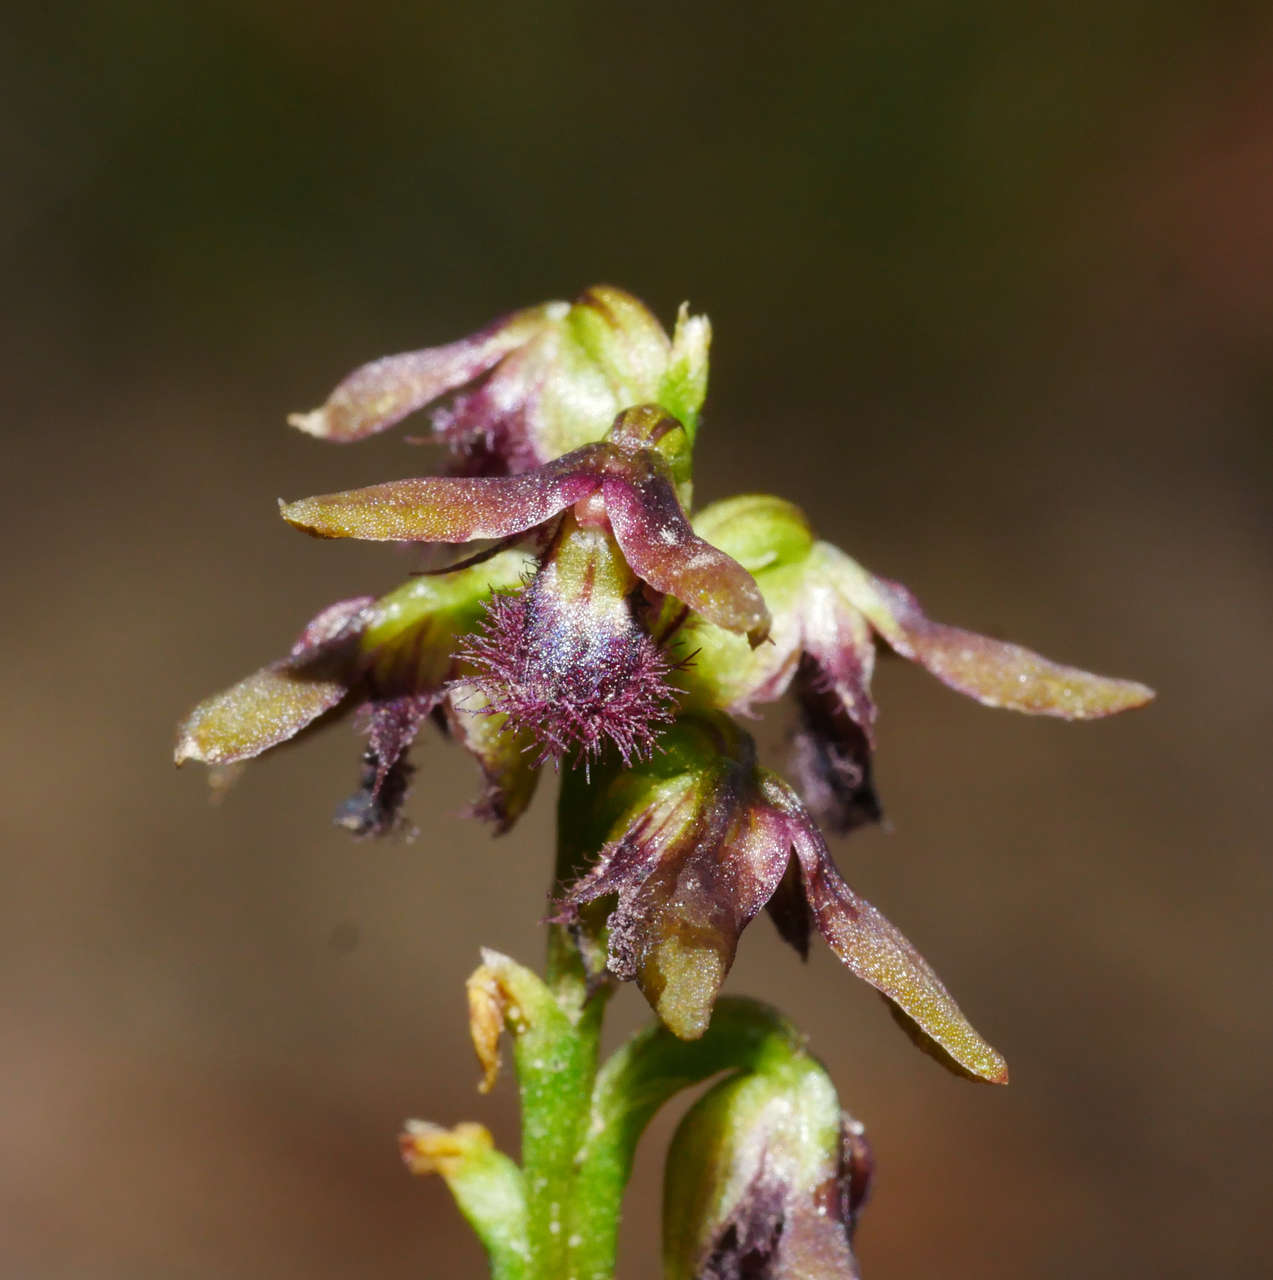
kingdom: Plantae
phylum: Tracheophyta
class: Liliopsida
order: Asparagales
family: Orchidaceae
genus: Genoplesium
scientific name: Genoplesium morrisii
